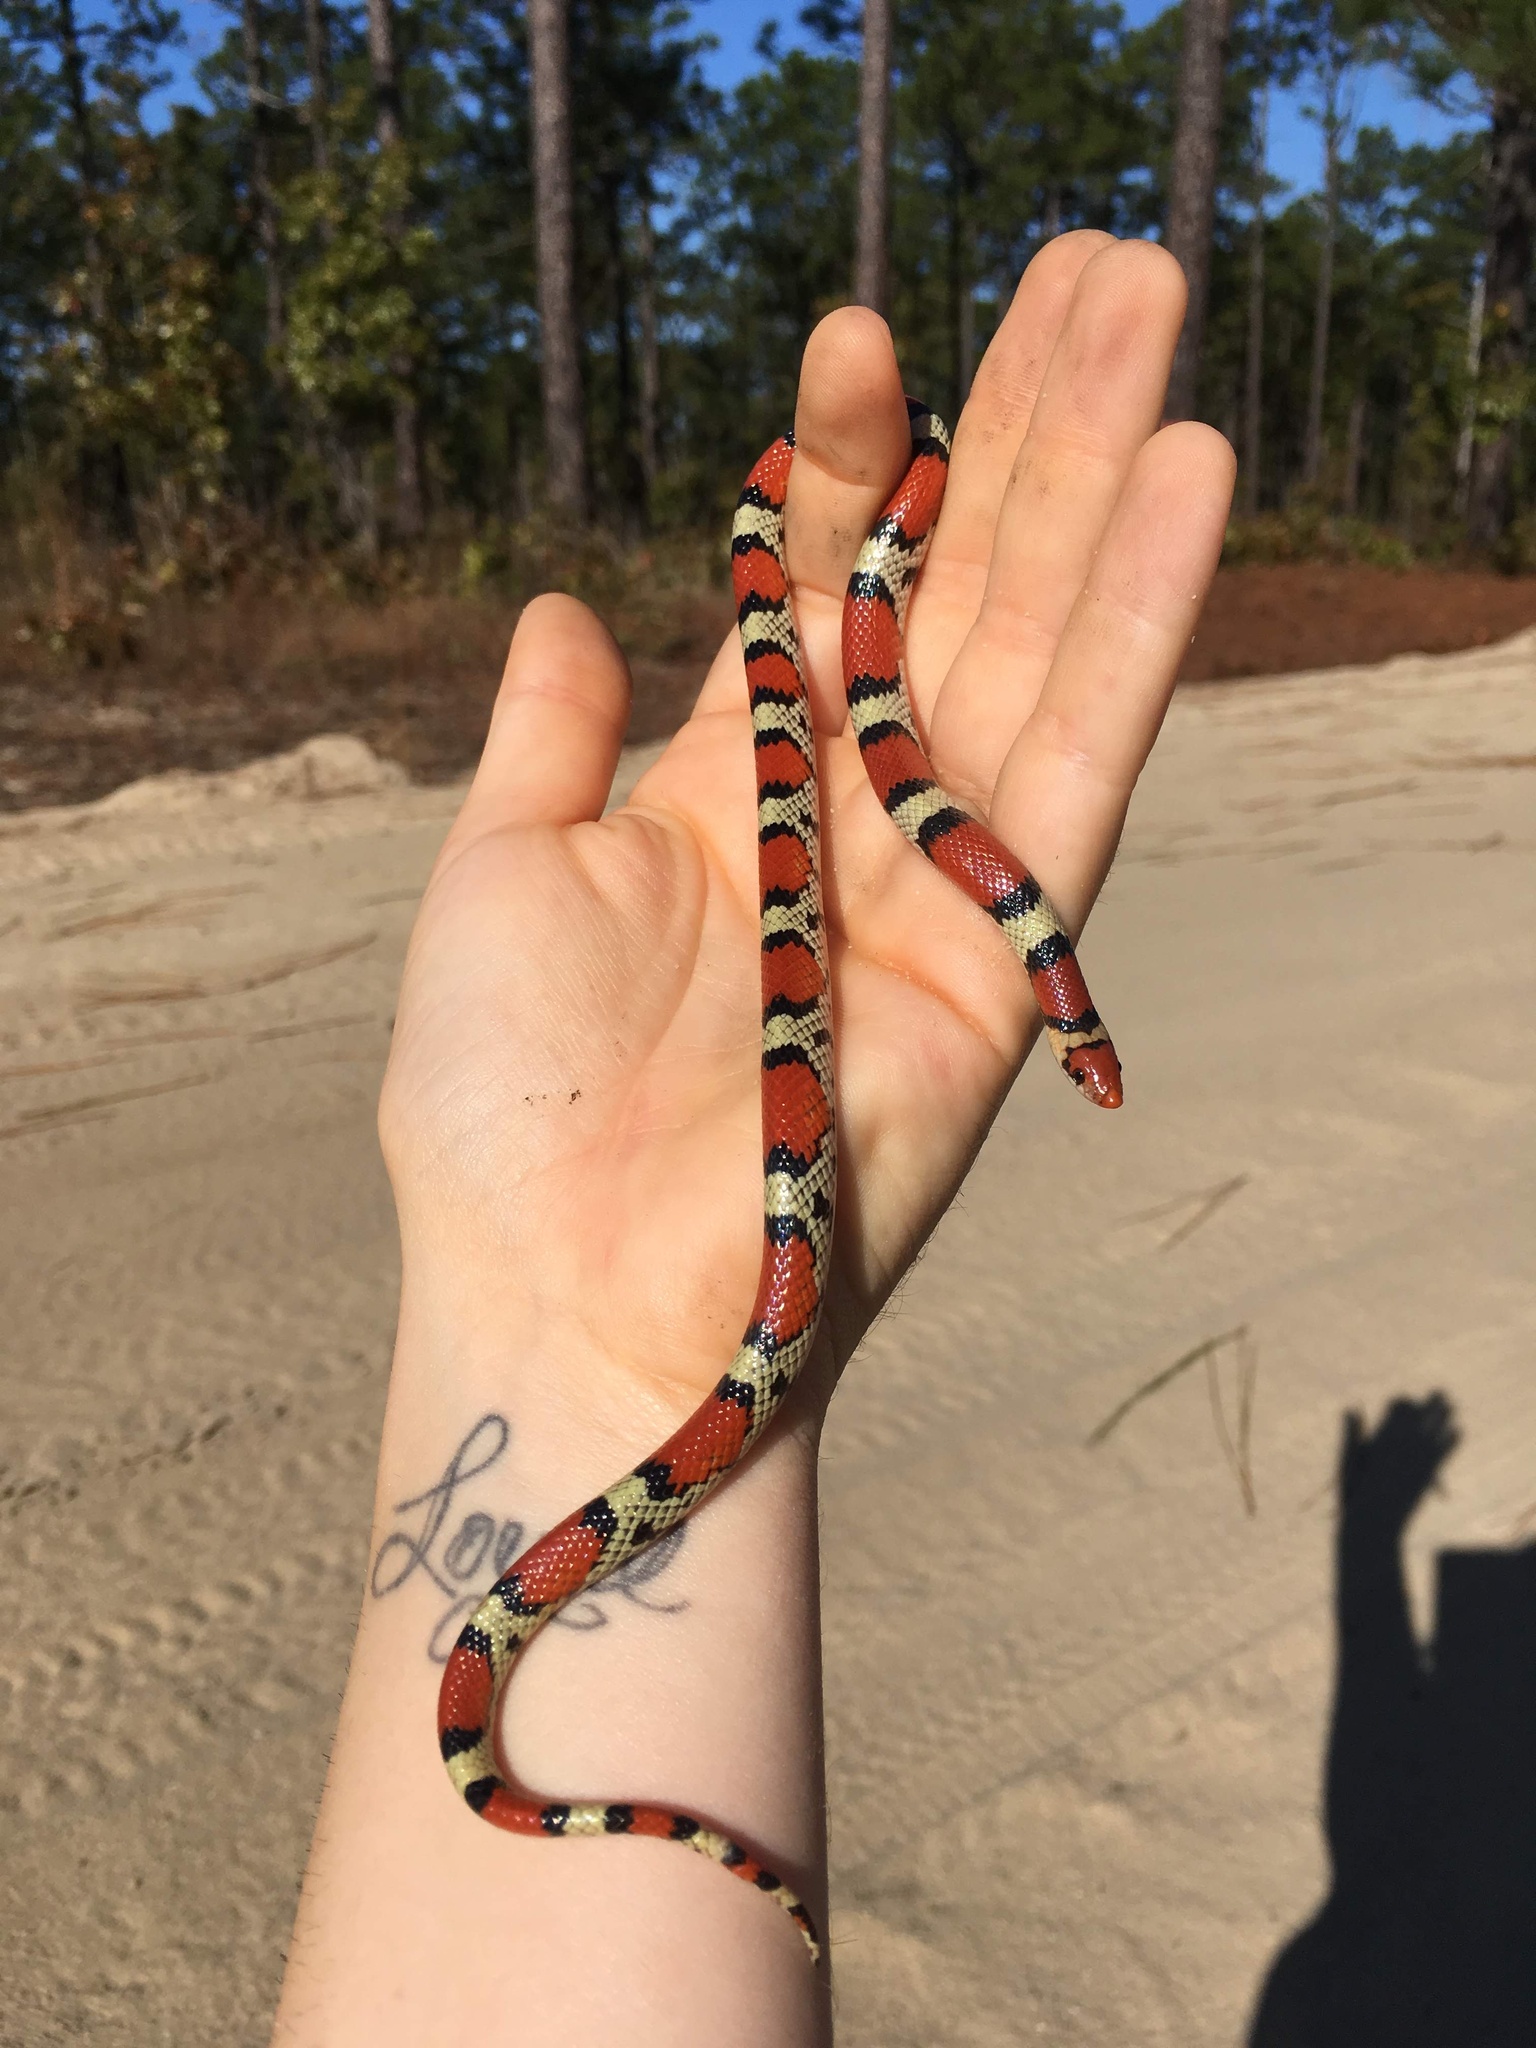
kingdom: Animalia
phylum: Chordata
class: Squamata
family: Colubridae
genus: Cemophora
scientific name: Cemophora coccinea
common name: Scarlet snake
